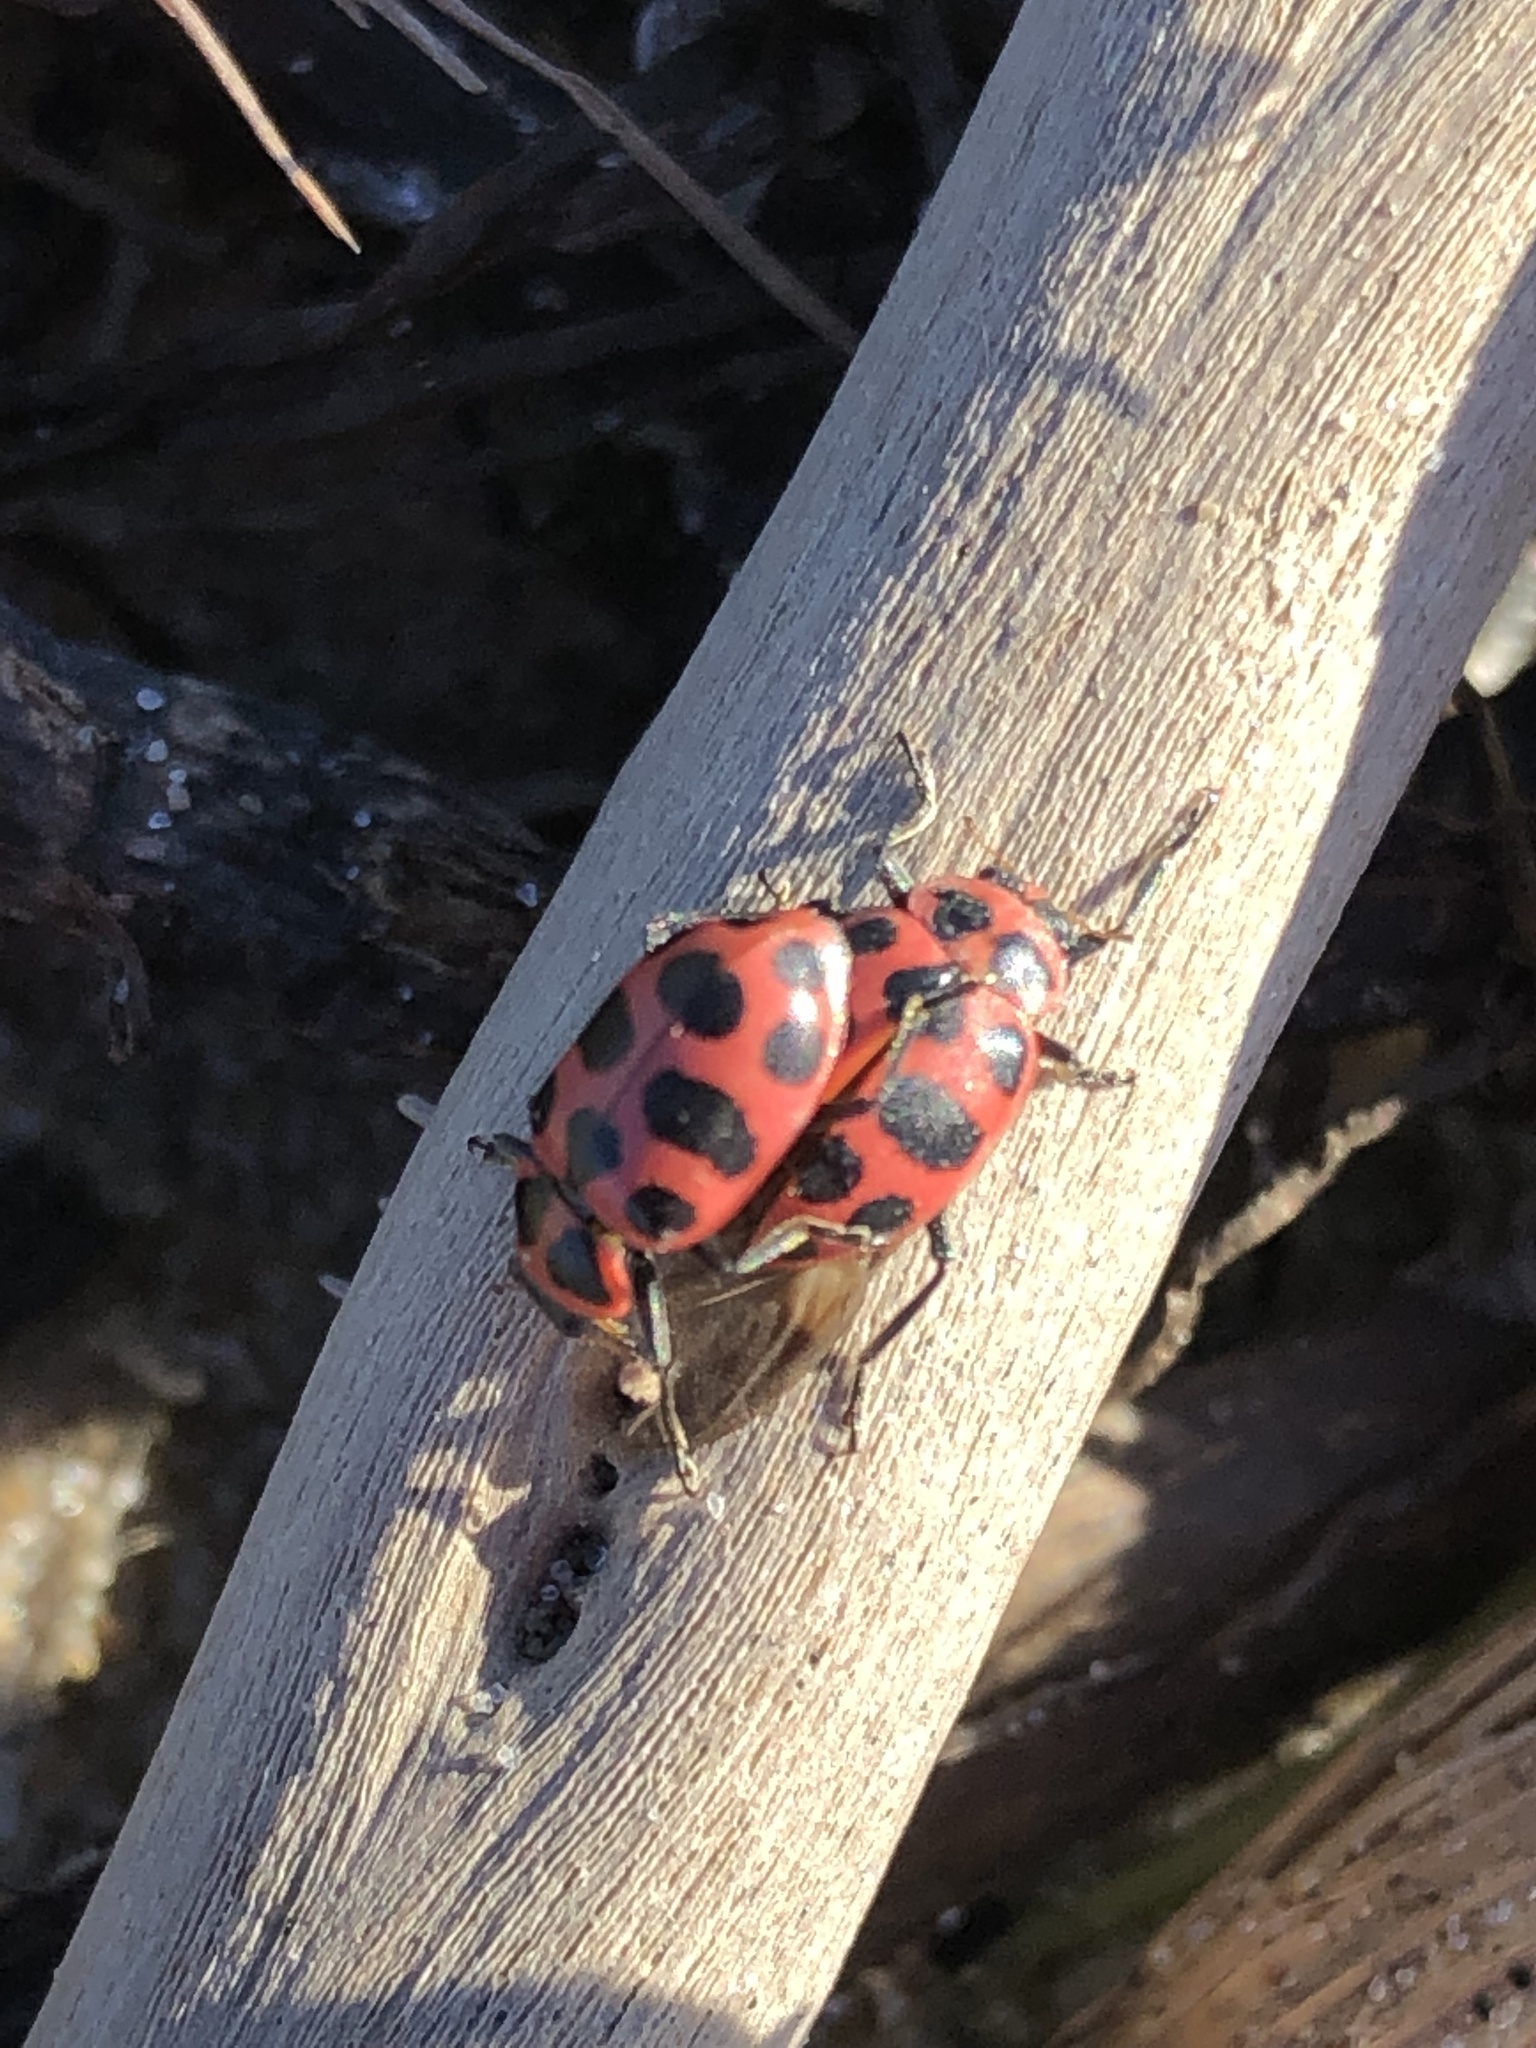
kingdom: Animalia
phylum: Arthropoda
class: Insecta
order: Coleoptera
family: Coccinellidae
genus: Coleomegilla
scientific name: Coleomegilla maculata
